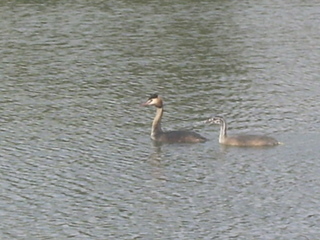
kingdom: Animalia
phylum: Chordata
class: Aves
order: Podicipediformes
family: Podicipedidae
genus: Podiceps
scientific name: Podiceps cristatus
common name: Great crested grebe
